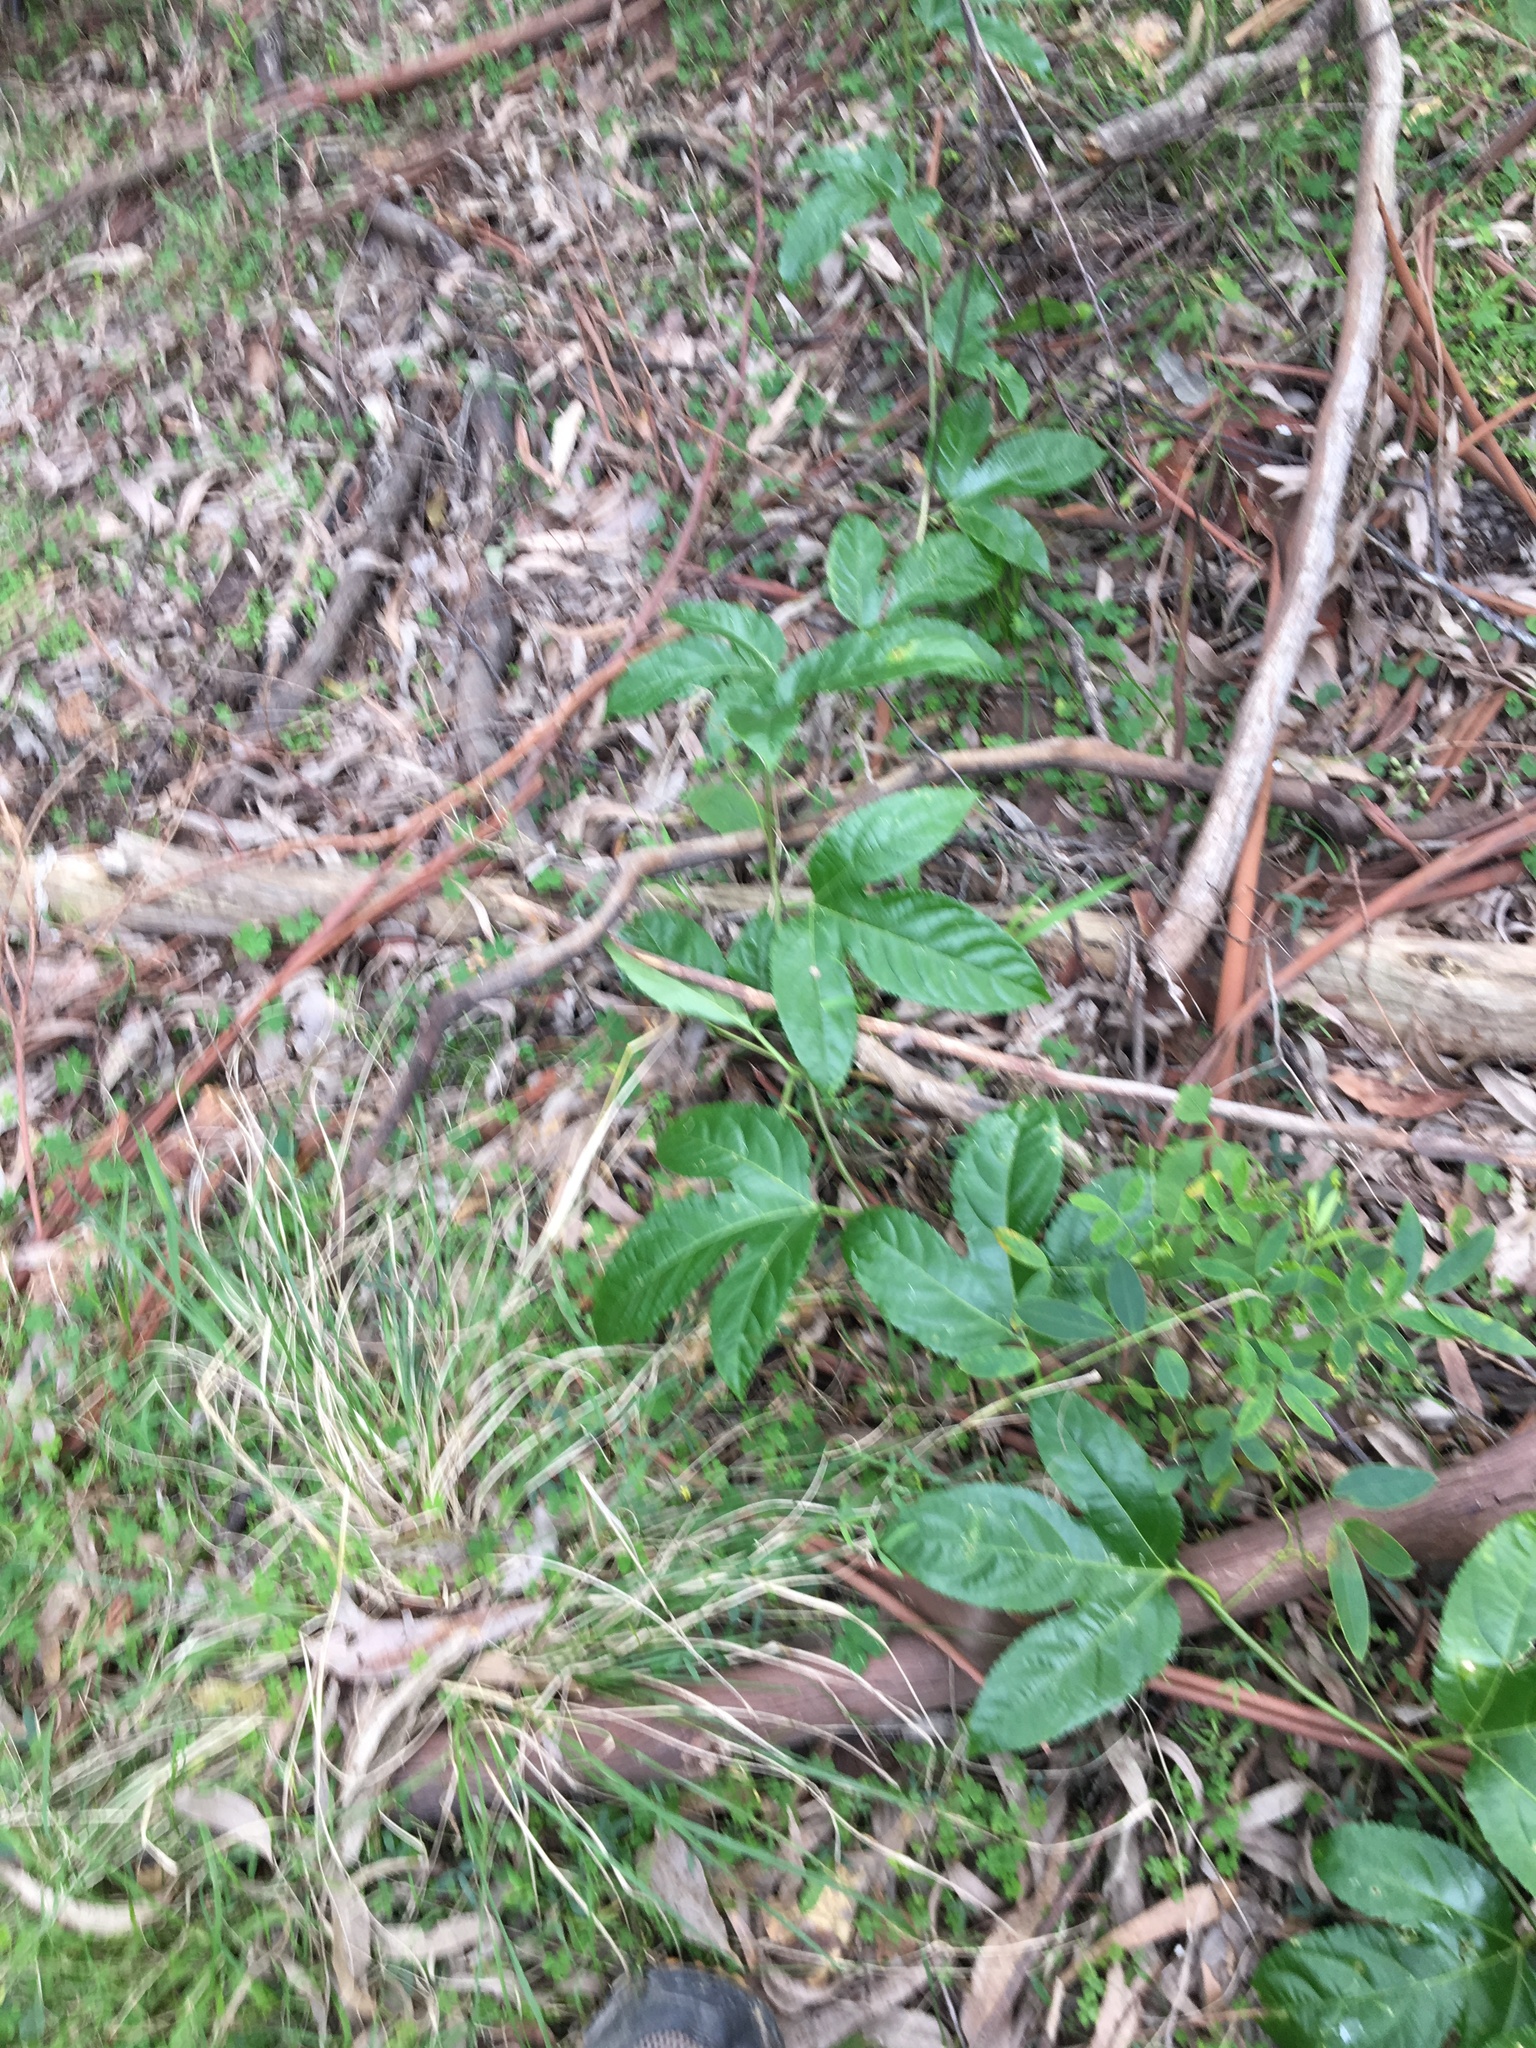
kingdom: Plantae
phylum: Tracheophyta
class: Magnoliopsida
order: Malpighiales
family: Passifloraceae
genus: Passiflora
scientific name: Passiflora edulis
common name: Purple granadilla
